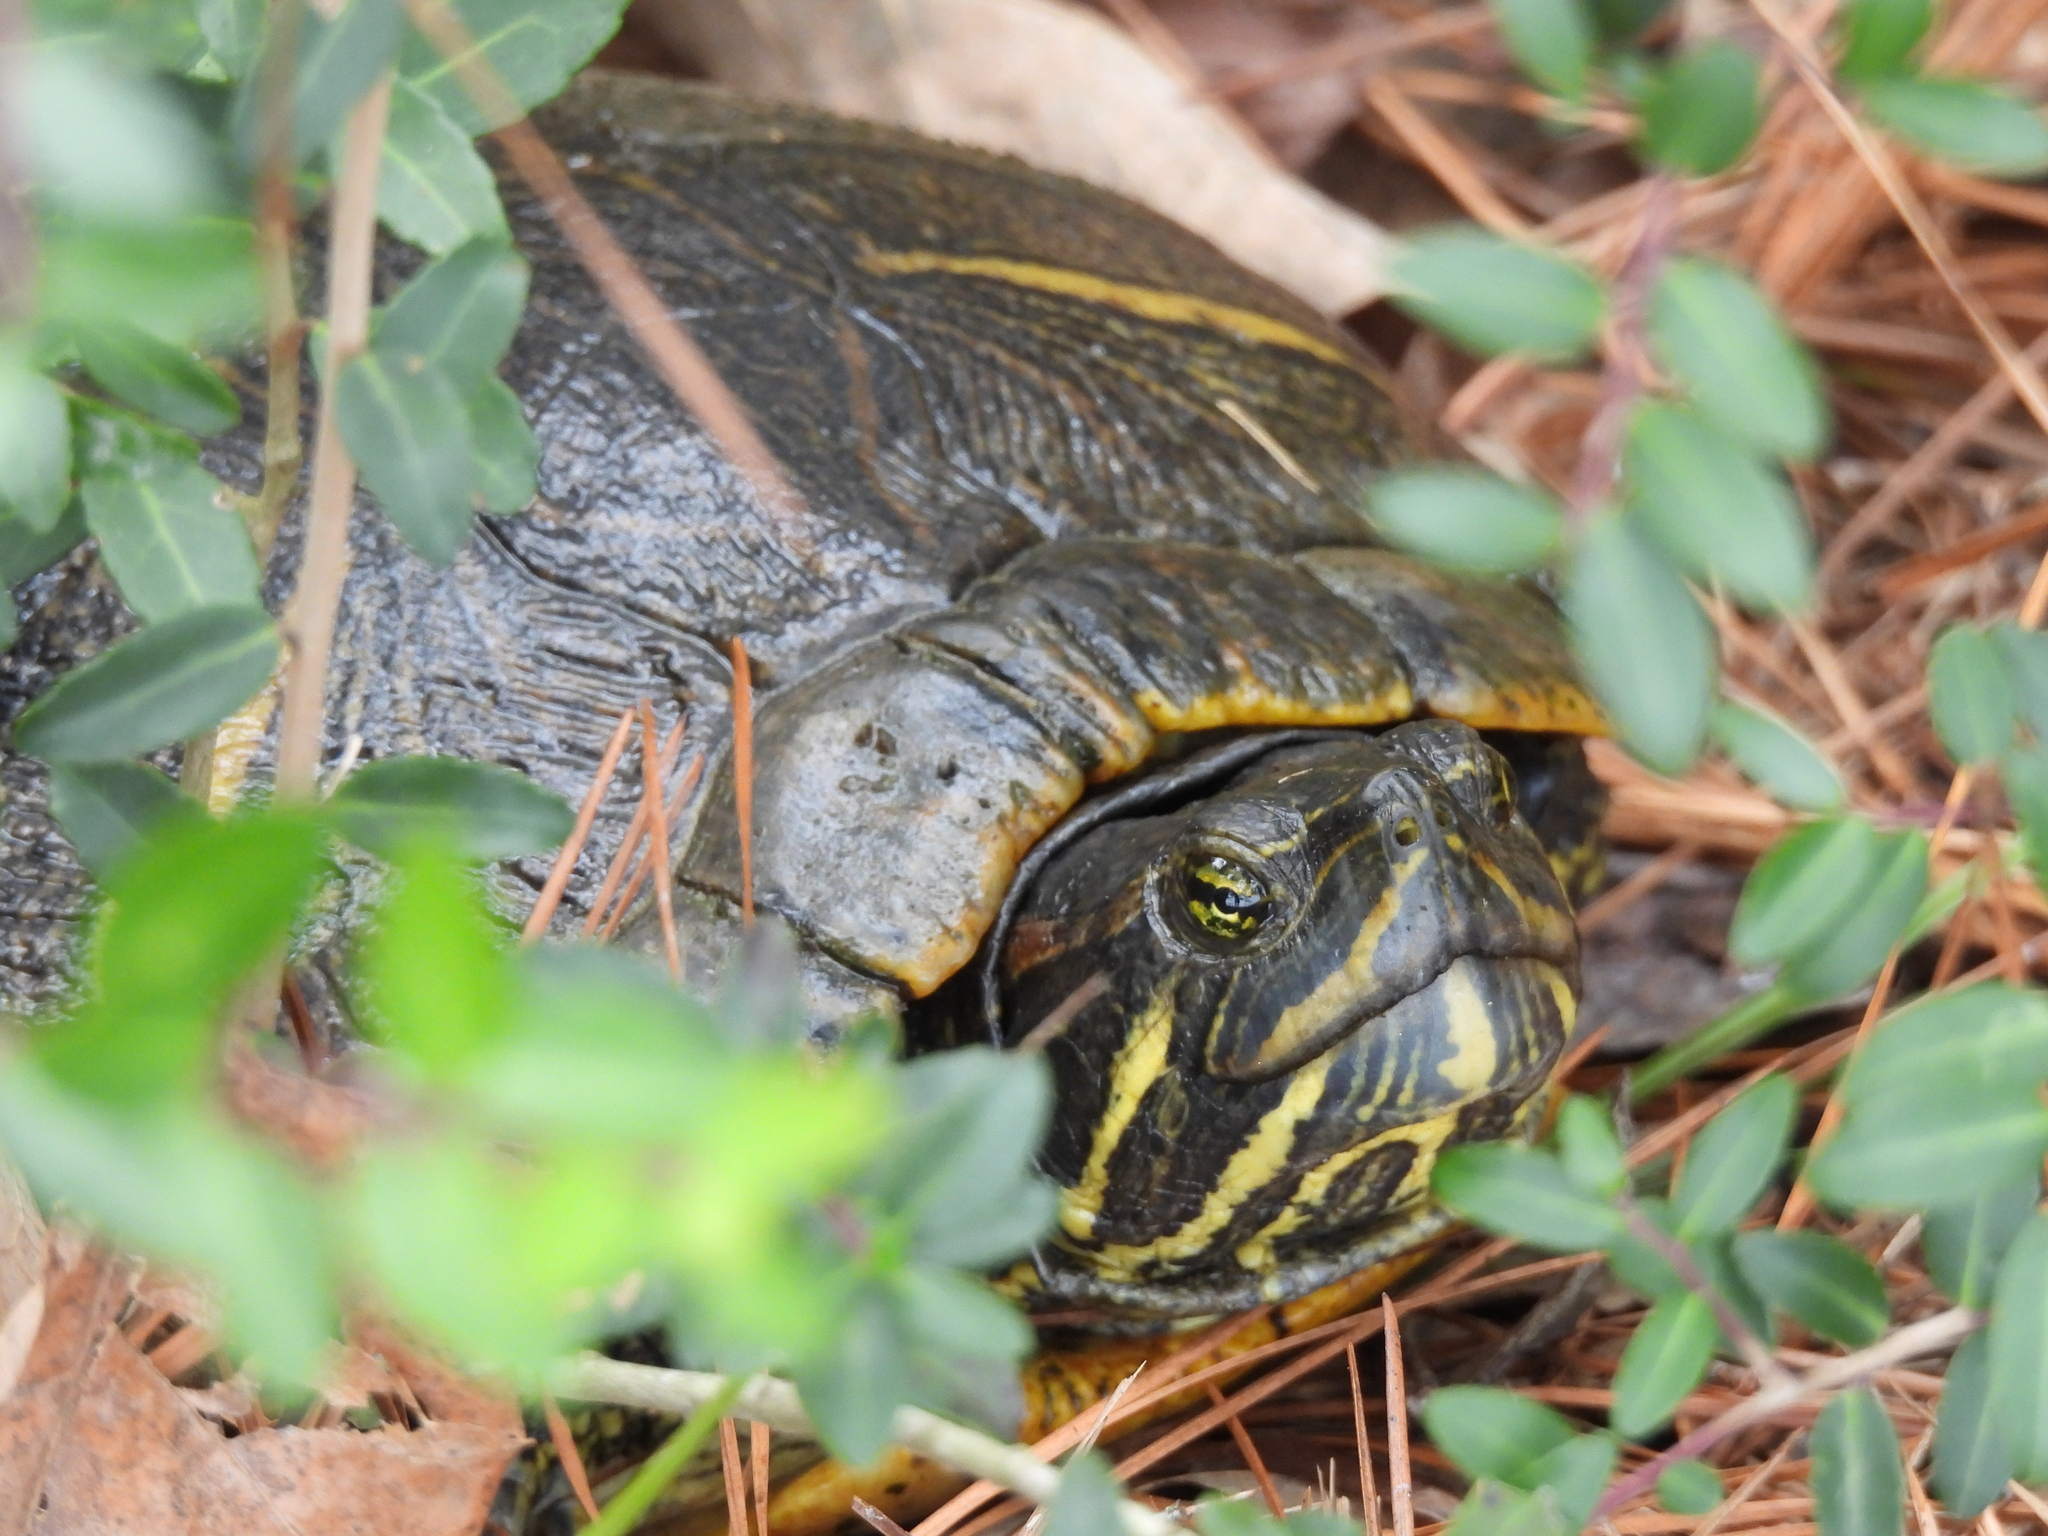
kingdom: Animalia
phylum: Chordata
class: Testudines
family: Emydidae
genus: Trachemys
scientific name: Trachemys scripta
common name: Slider
